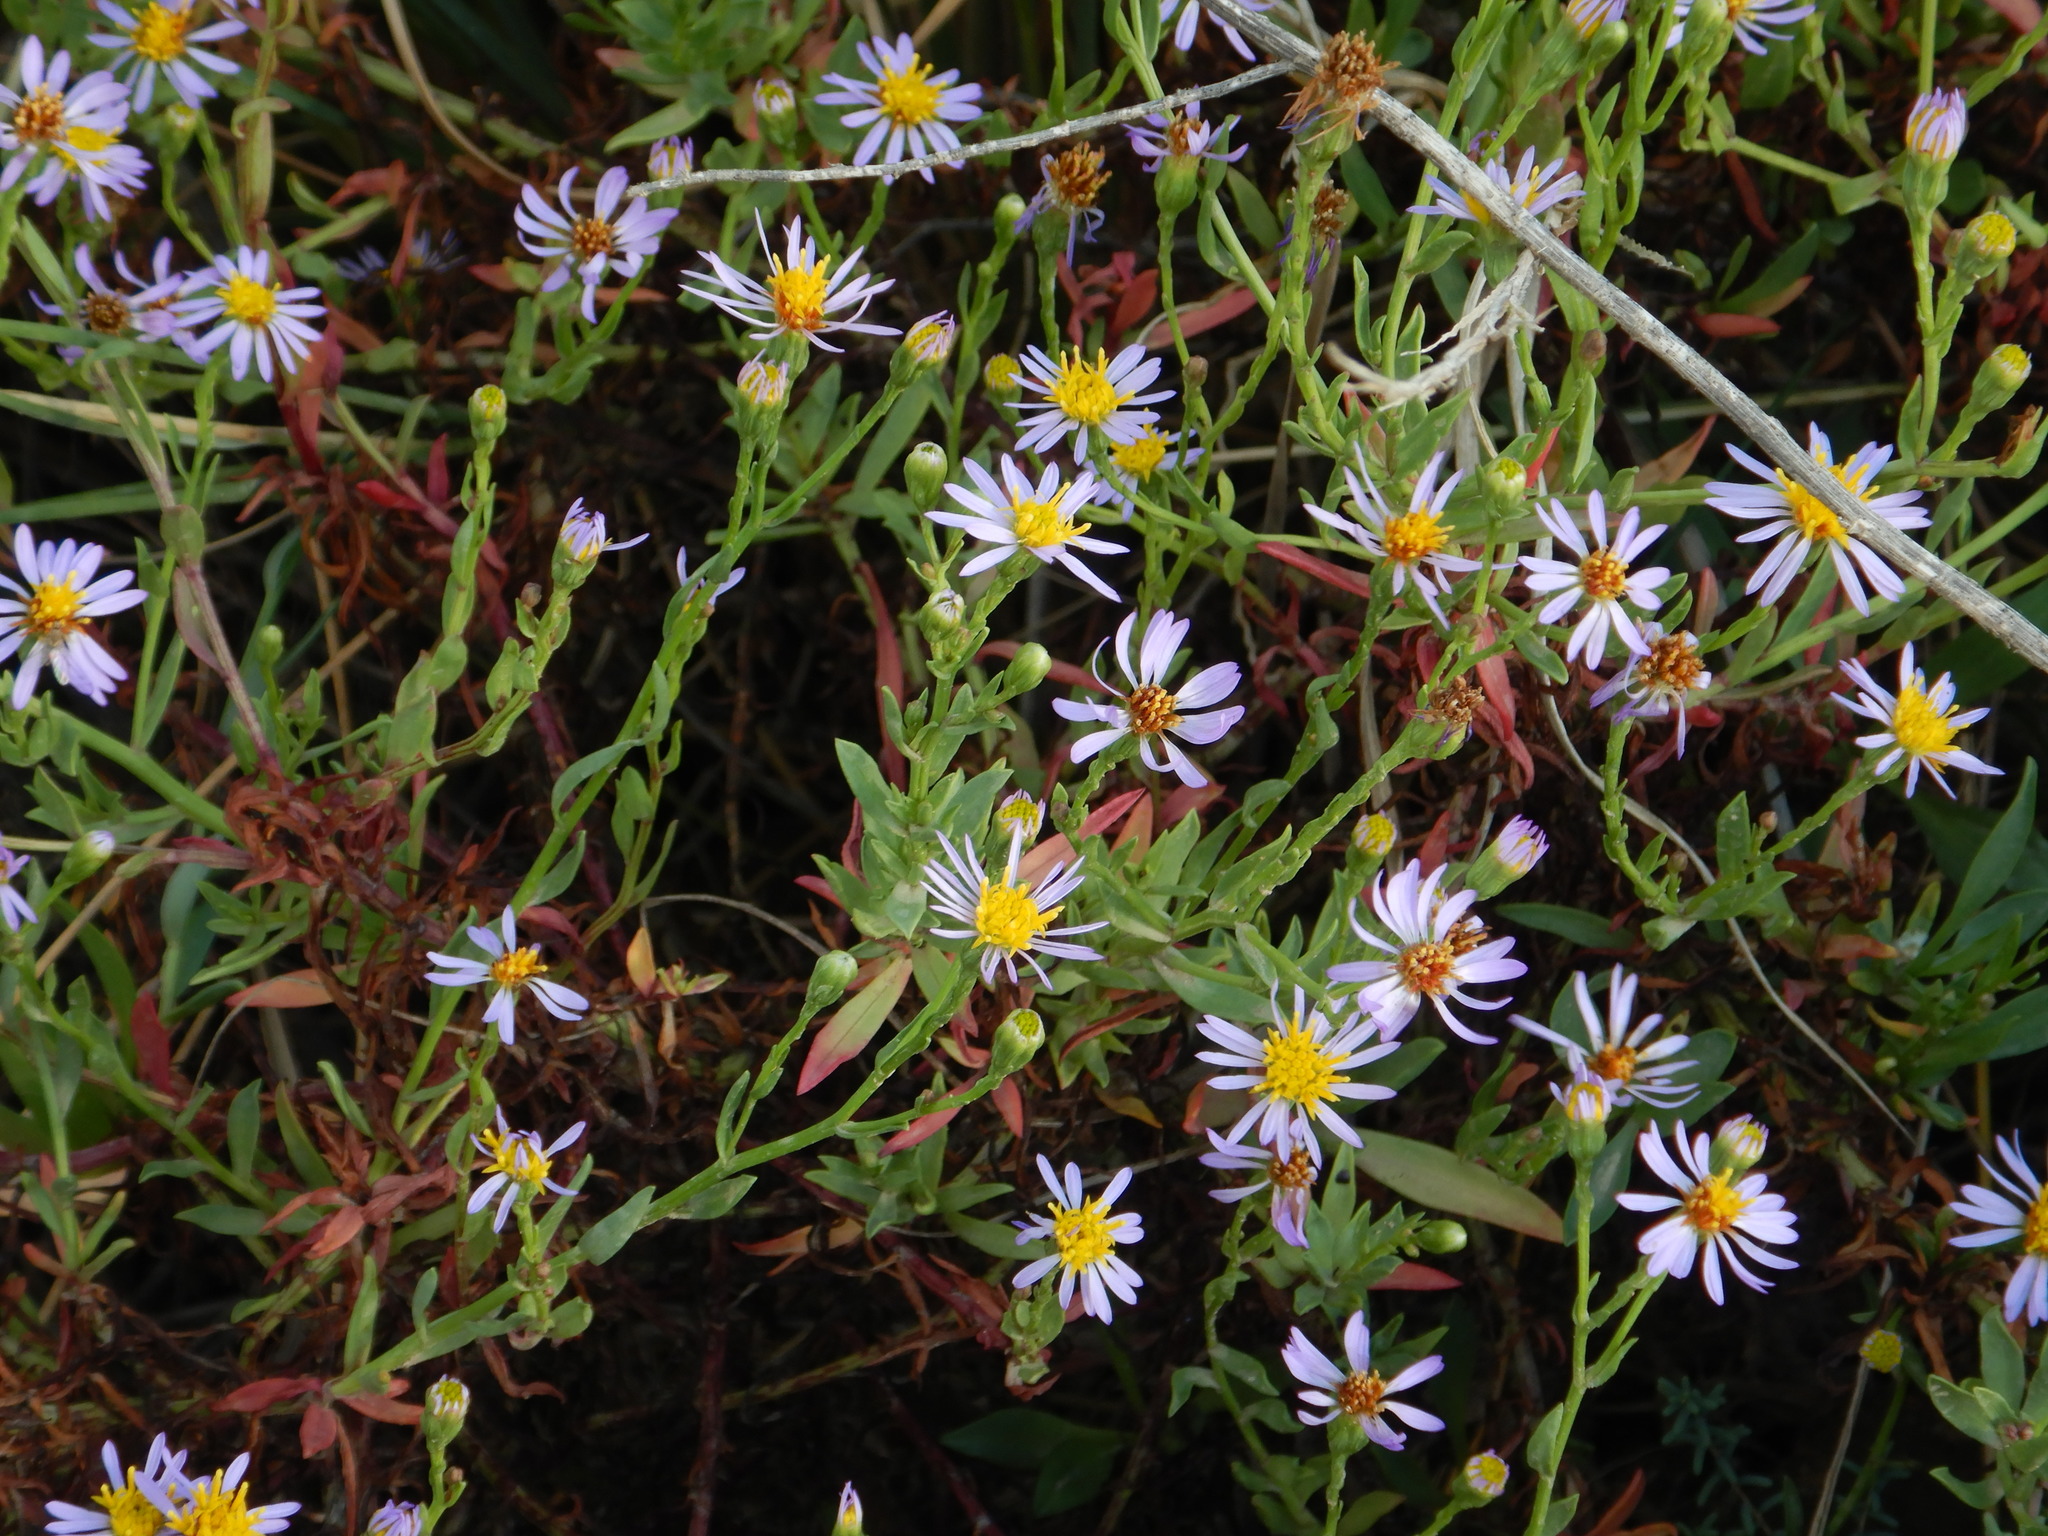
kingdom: Plantae
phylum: Tracheophyta
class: Magnoliopsida
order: Asterales
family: Asteraceae
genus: Tripolium
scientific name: Tripolium pannonicum
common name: Sea aster
